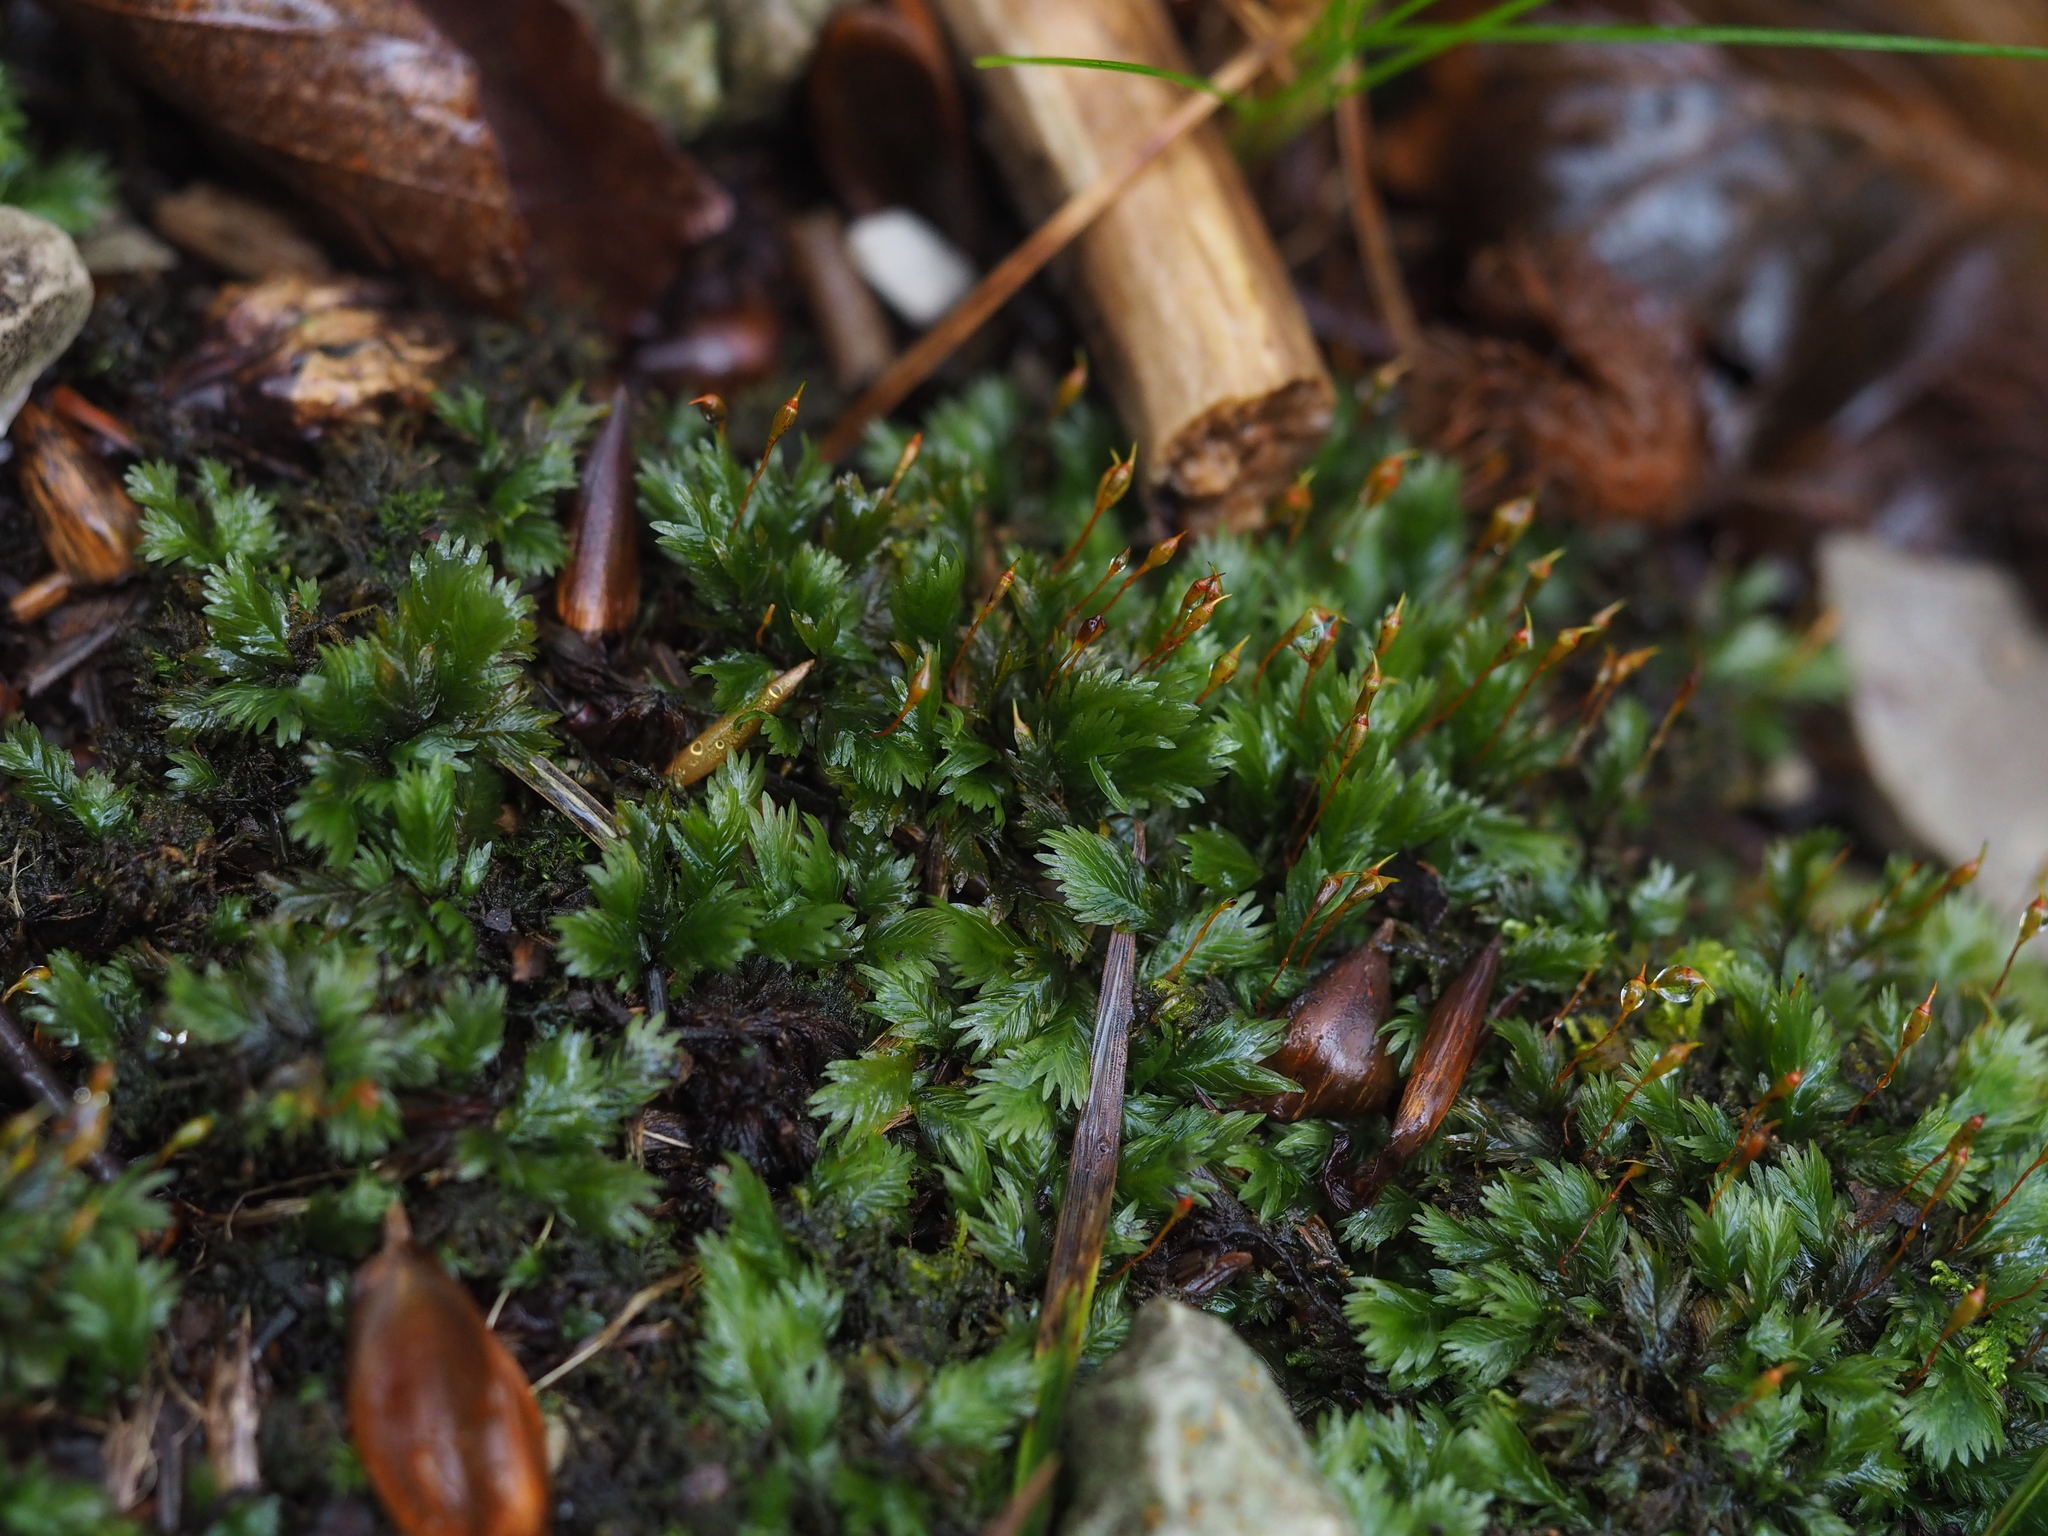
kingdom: Plantae
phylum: Bryophyta
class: Bryopsida
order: Dicranales
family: Fissidentaceae
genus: Fissidens
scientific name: Fissidens dubius
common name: Rock pocket moss
